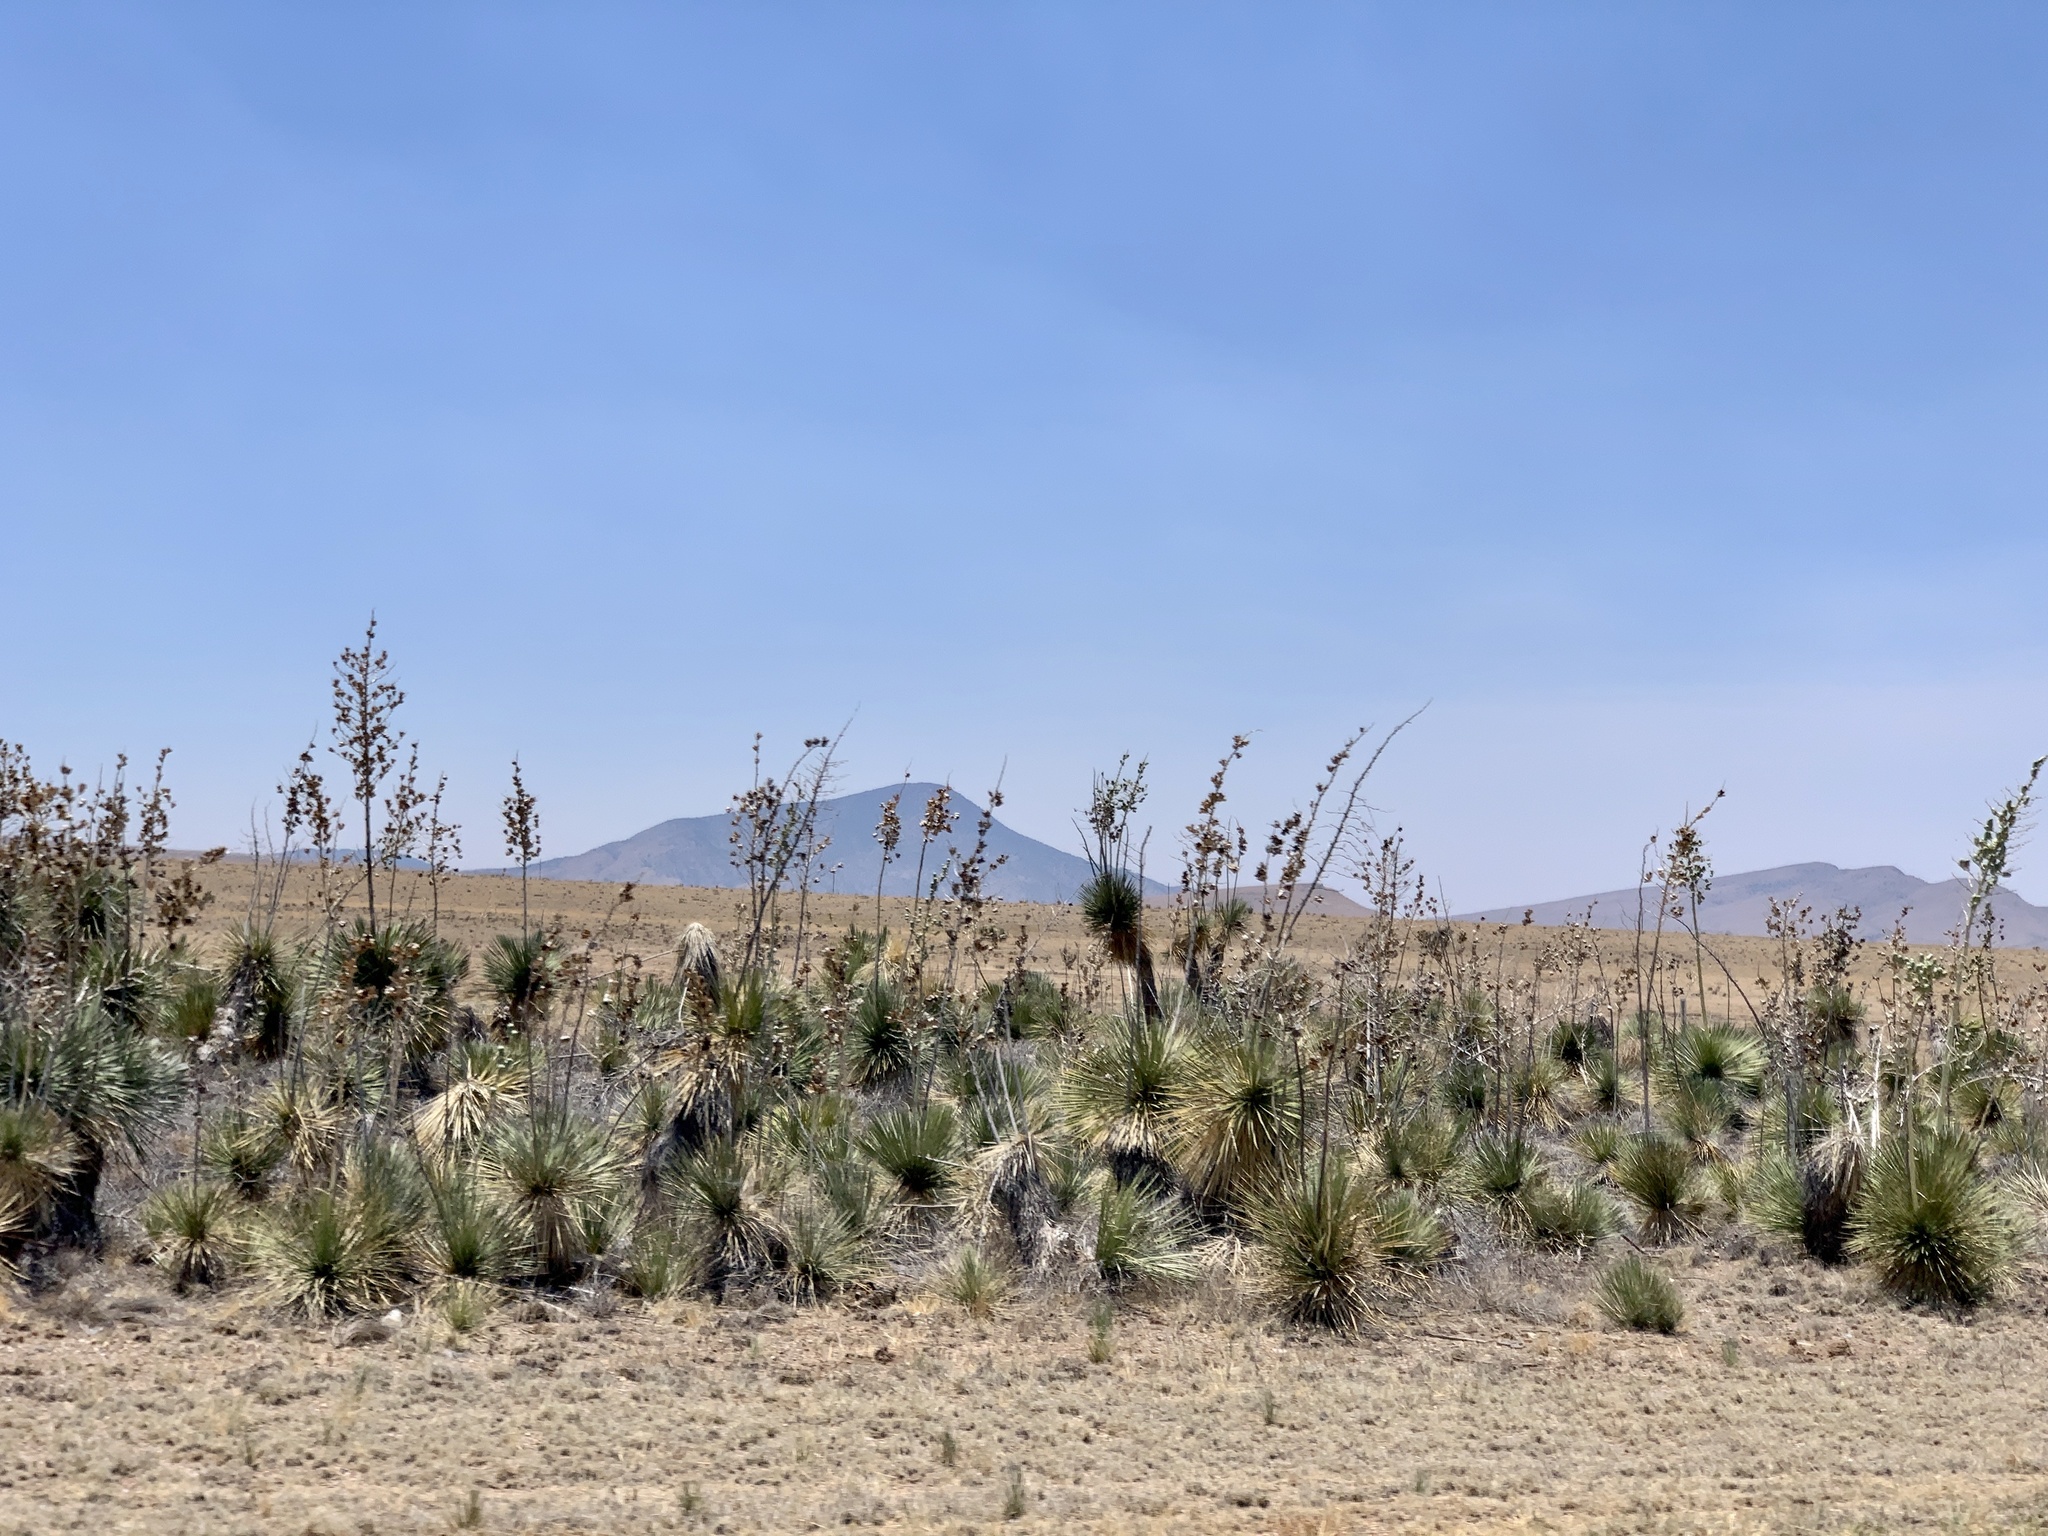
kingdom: Plantae
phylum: Tracheophyta
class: Liliopsida
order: Asparagales
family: Asparagaceae
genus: Yucca
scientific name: Yucca elata
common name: Palmella
